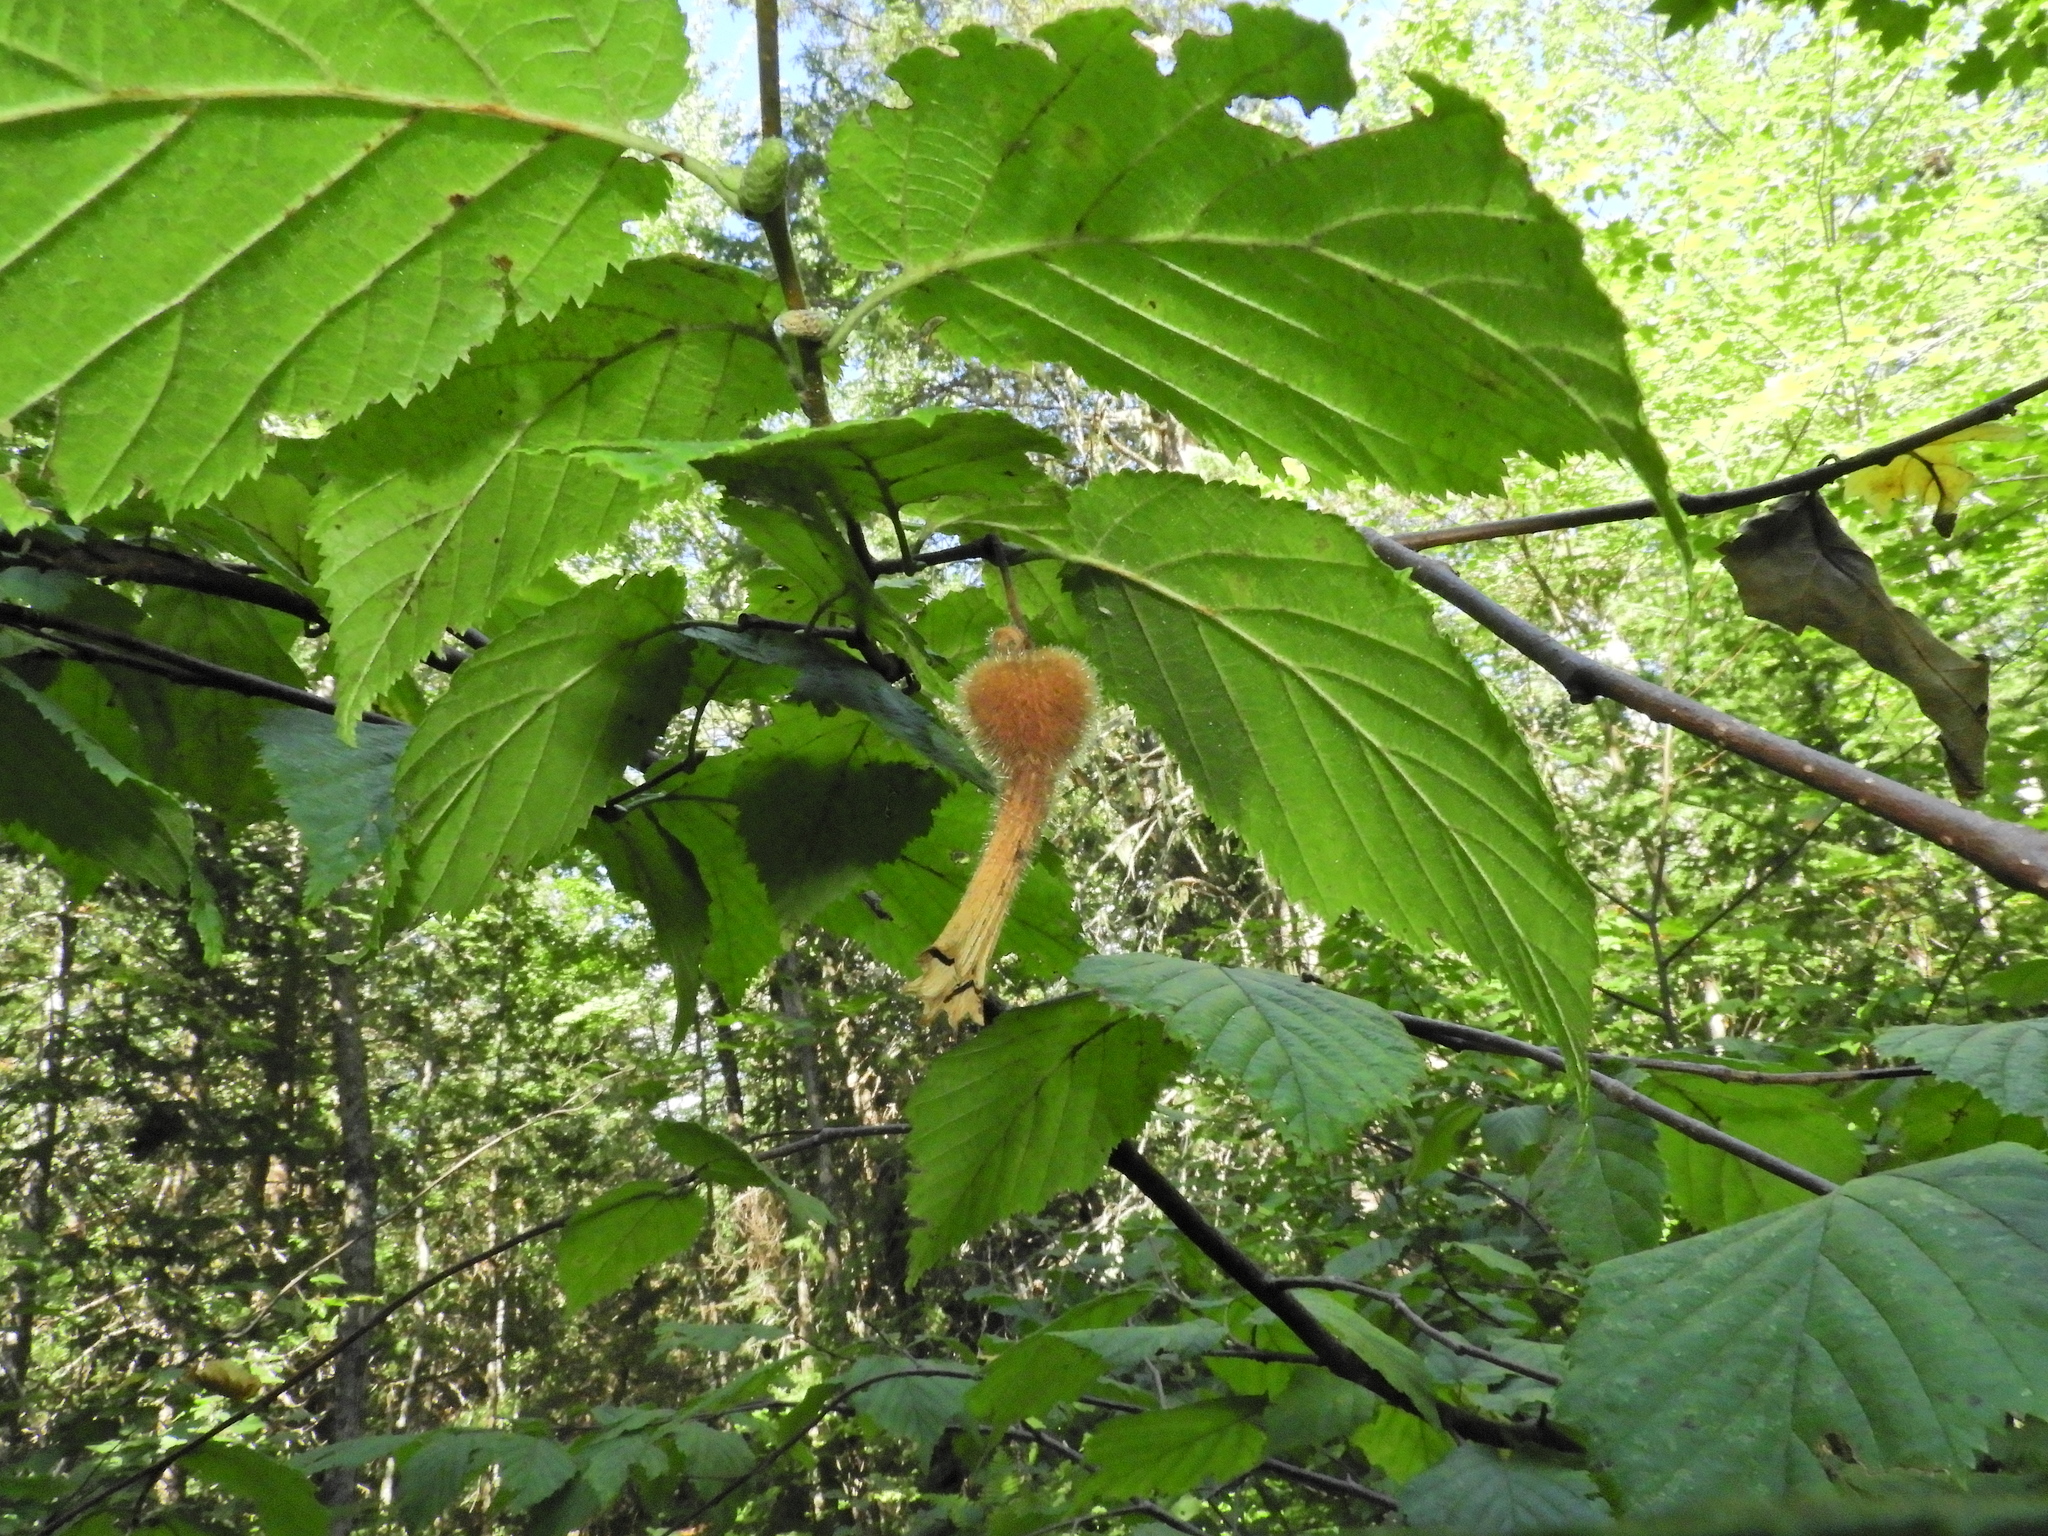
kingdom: Plantae
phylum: Tracheophyta
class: Magnoliopsida
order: Fagales
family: Betulaceae
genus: Corylus
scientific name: Corylus cornuta
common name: Beaked hazel
